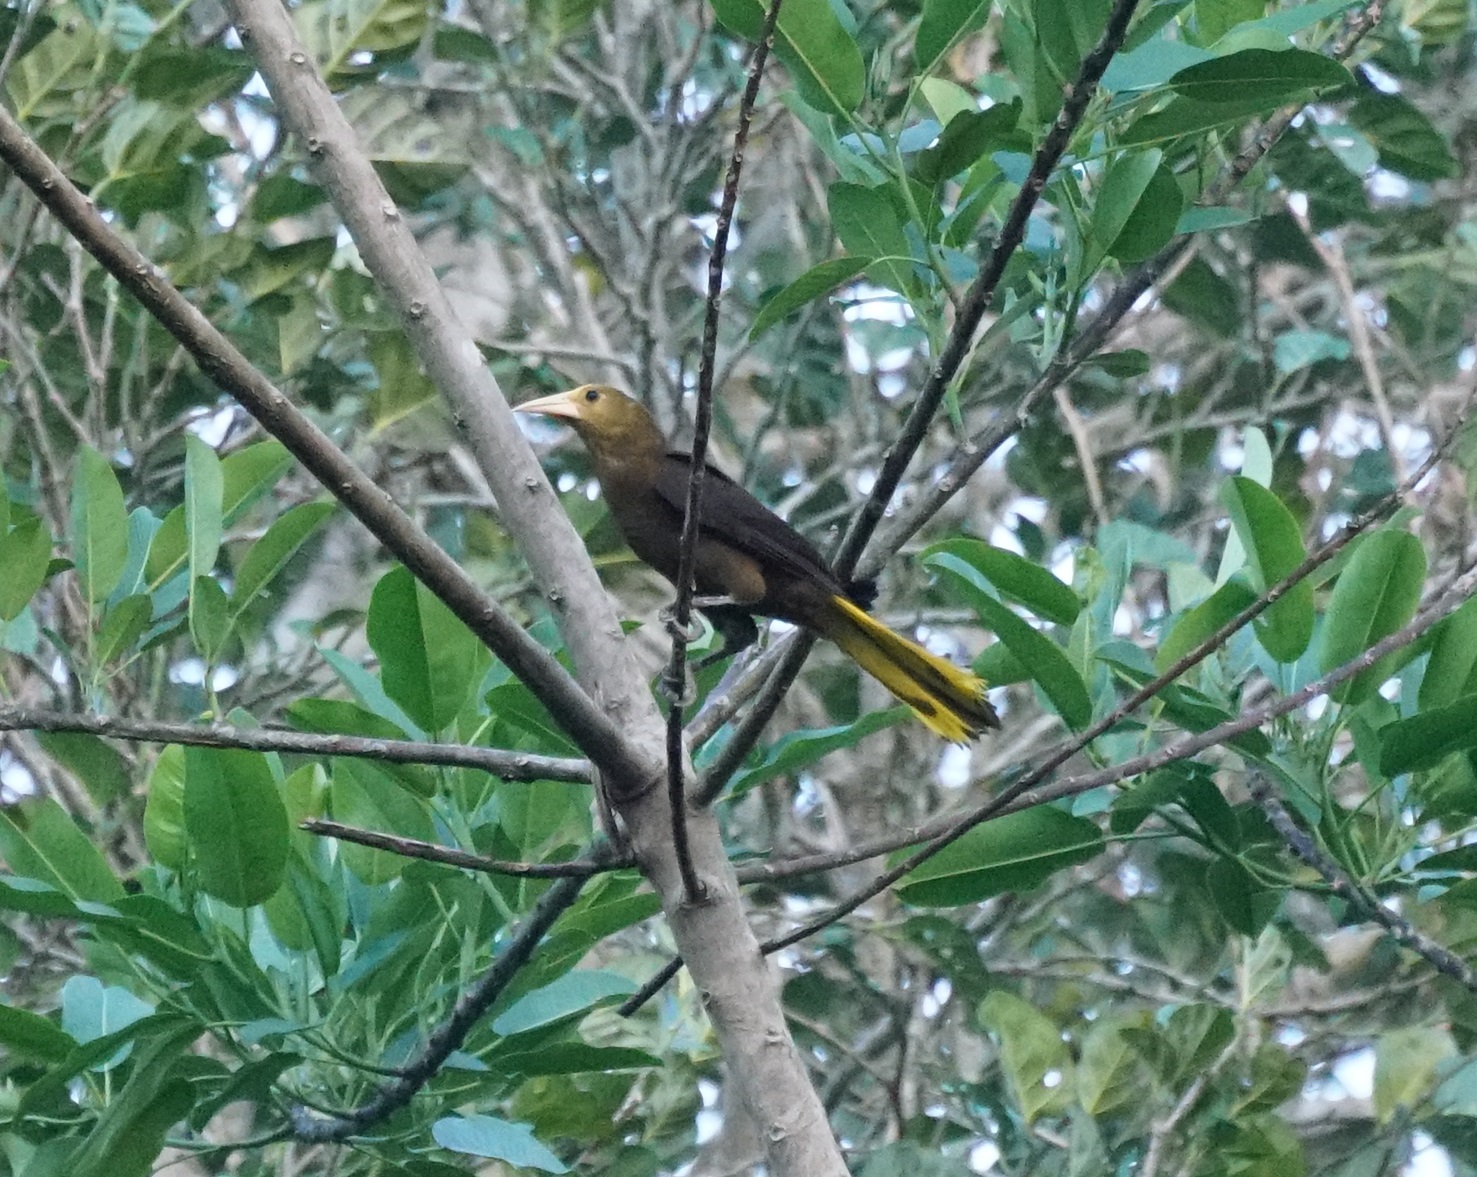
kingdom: Animalia
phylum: Chordata
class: Aves
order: Passeriformes
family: Icteridae
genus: Psarocolius
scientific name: Psarocolius angustifrons
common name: Russet-backed oropendola
